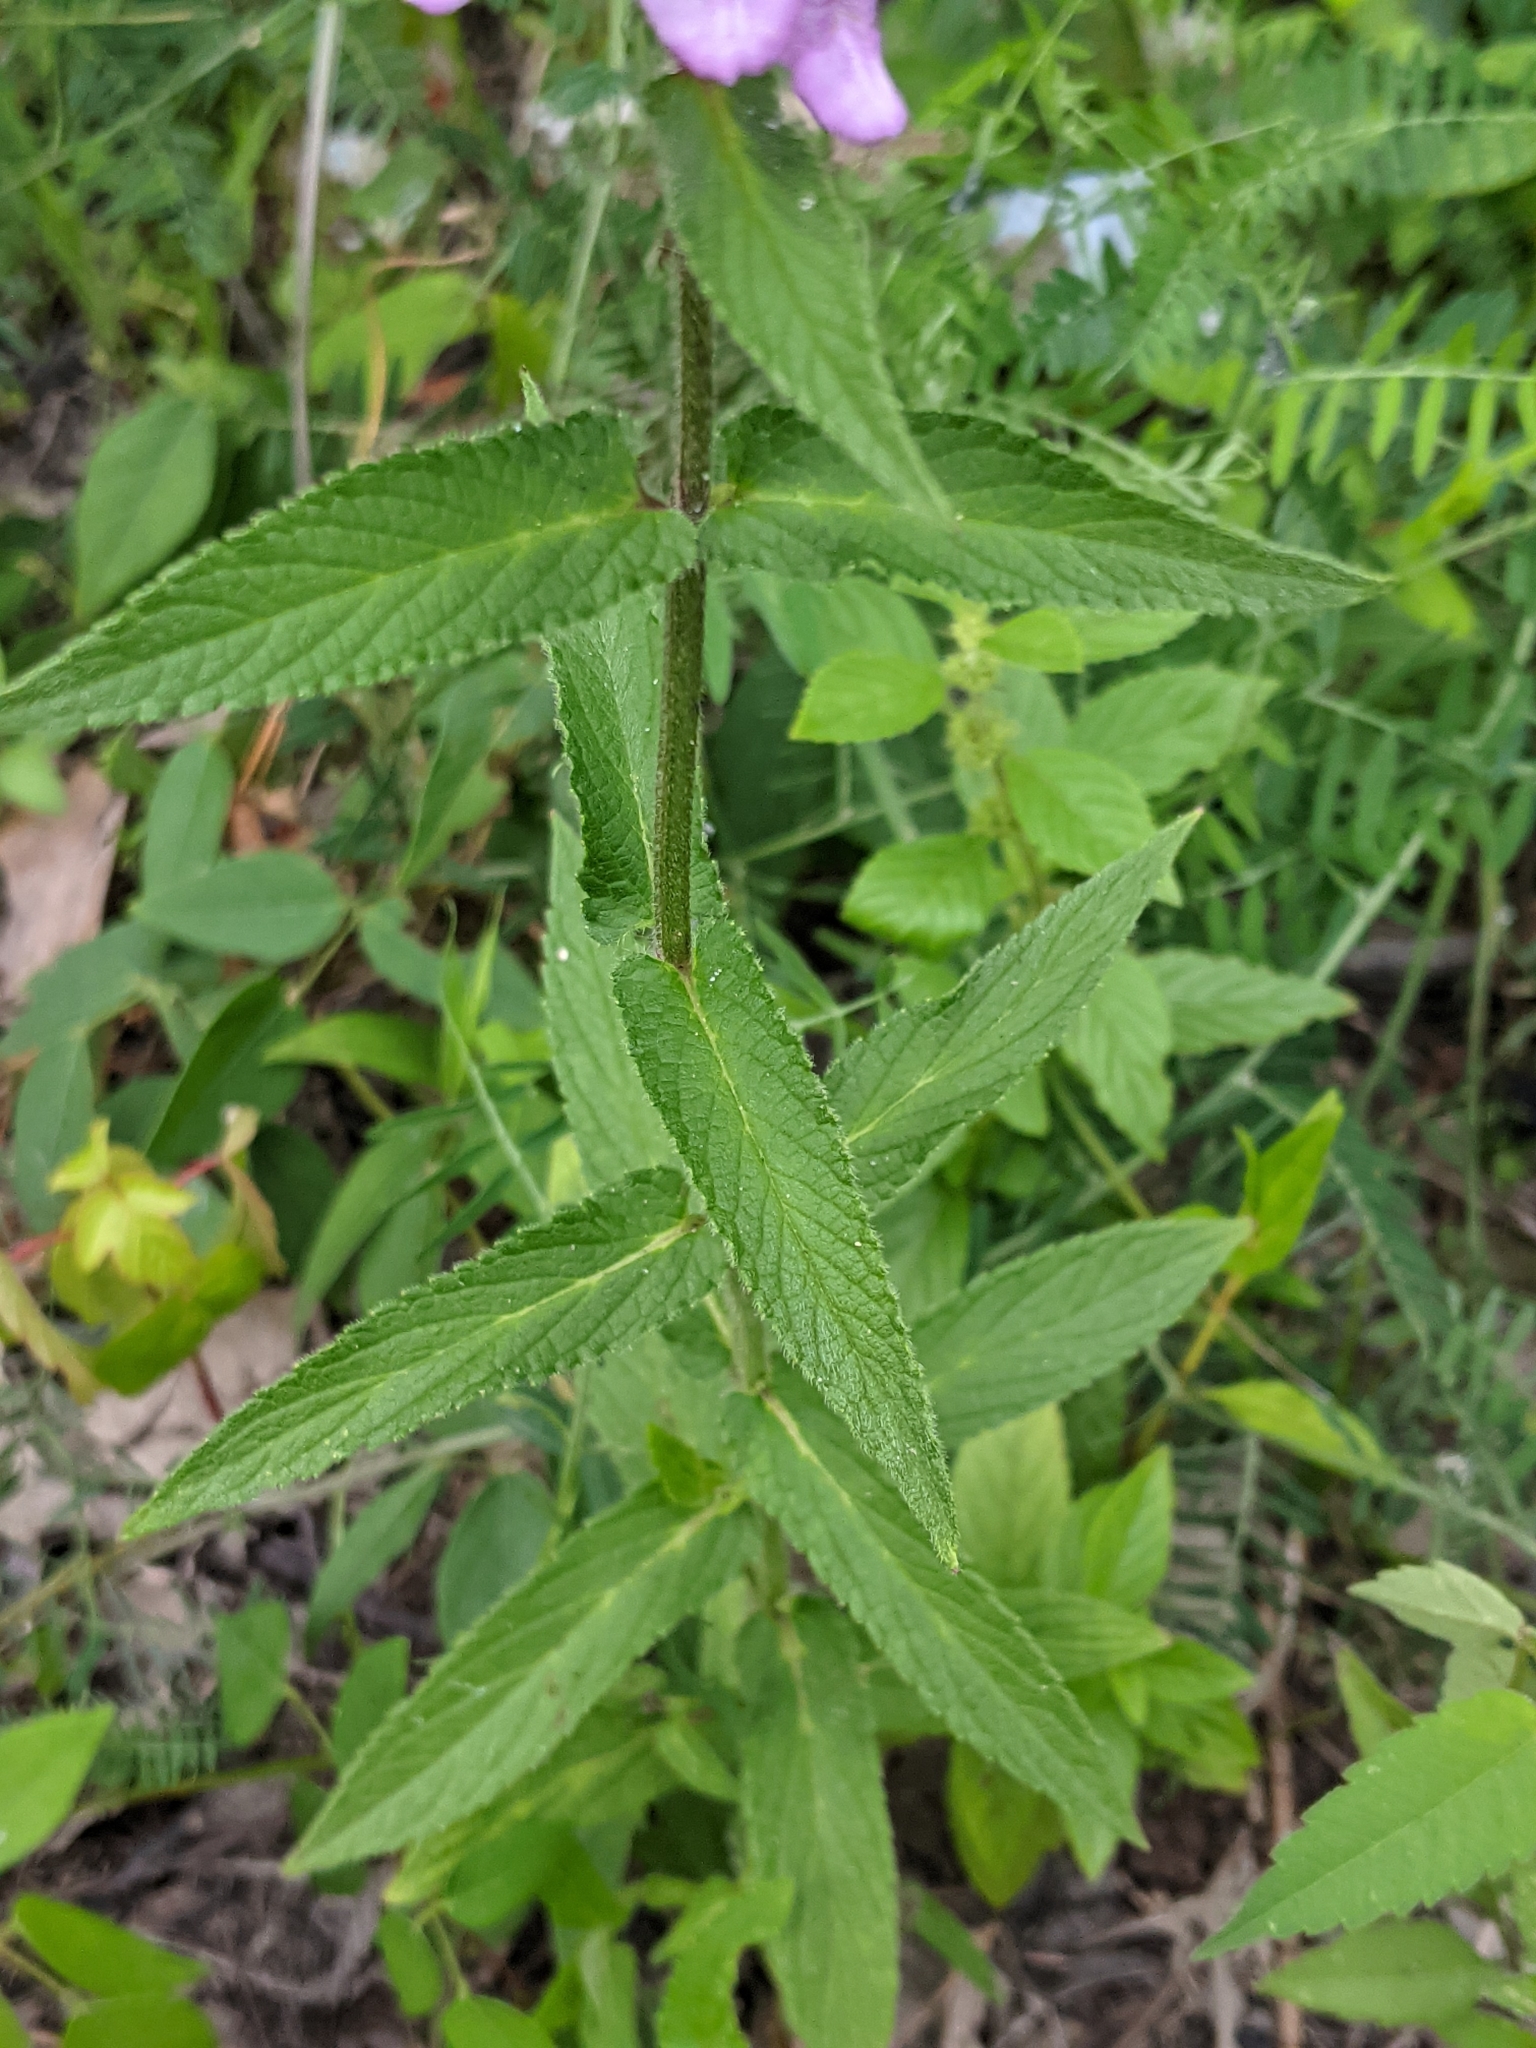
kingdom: Plantae
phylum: Tracheophyta
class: Magnoliopsida
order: Lamiales
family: Lamiaceae
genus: Stachys
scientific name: Stachys palustris
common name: Marsh woundwort
